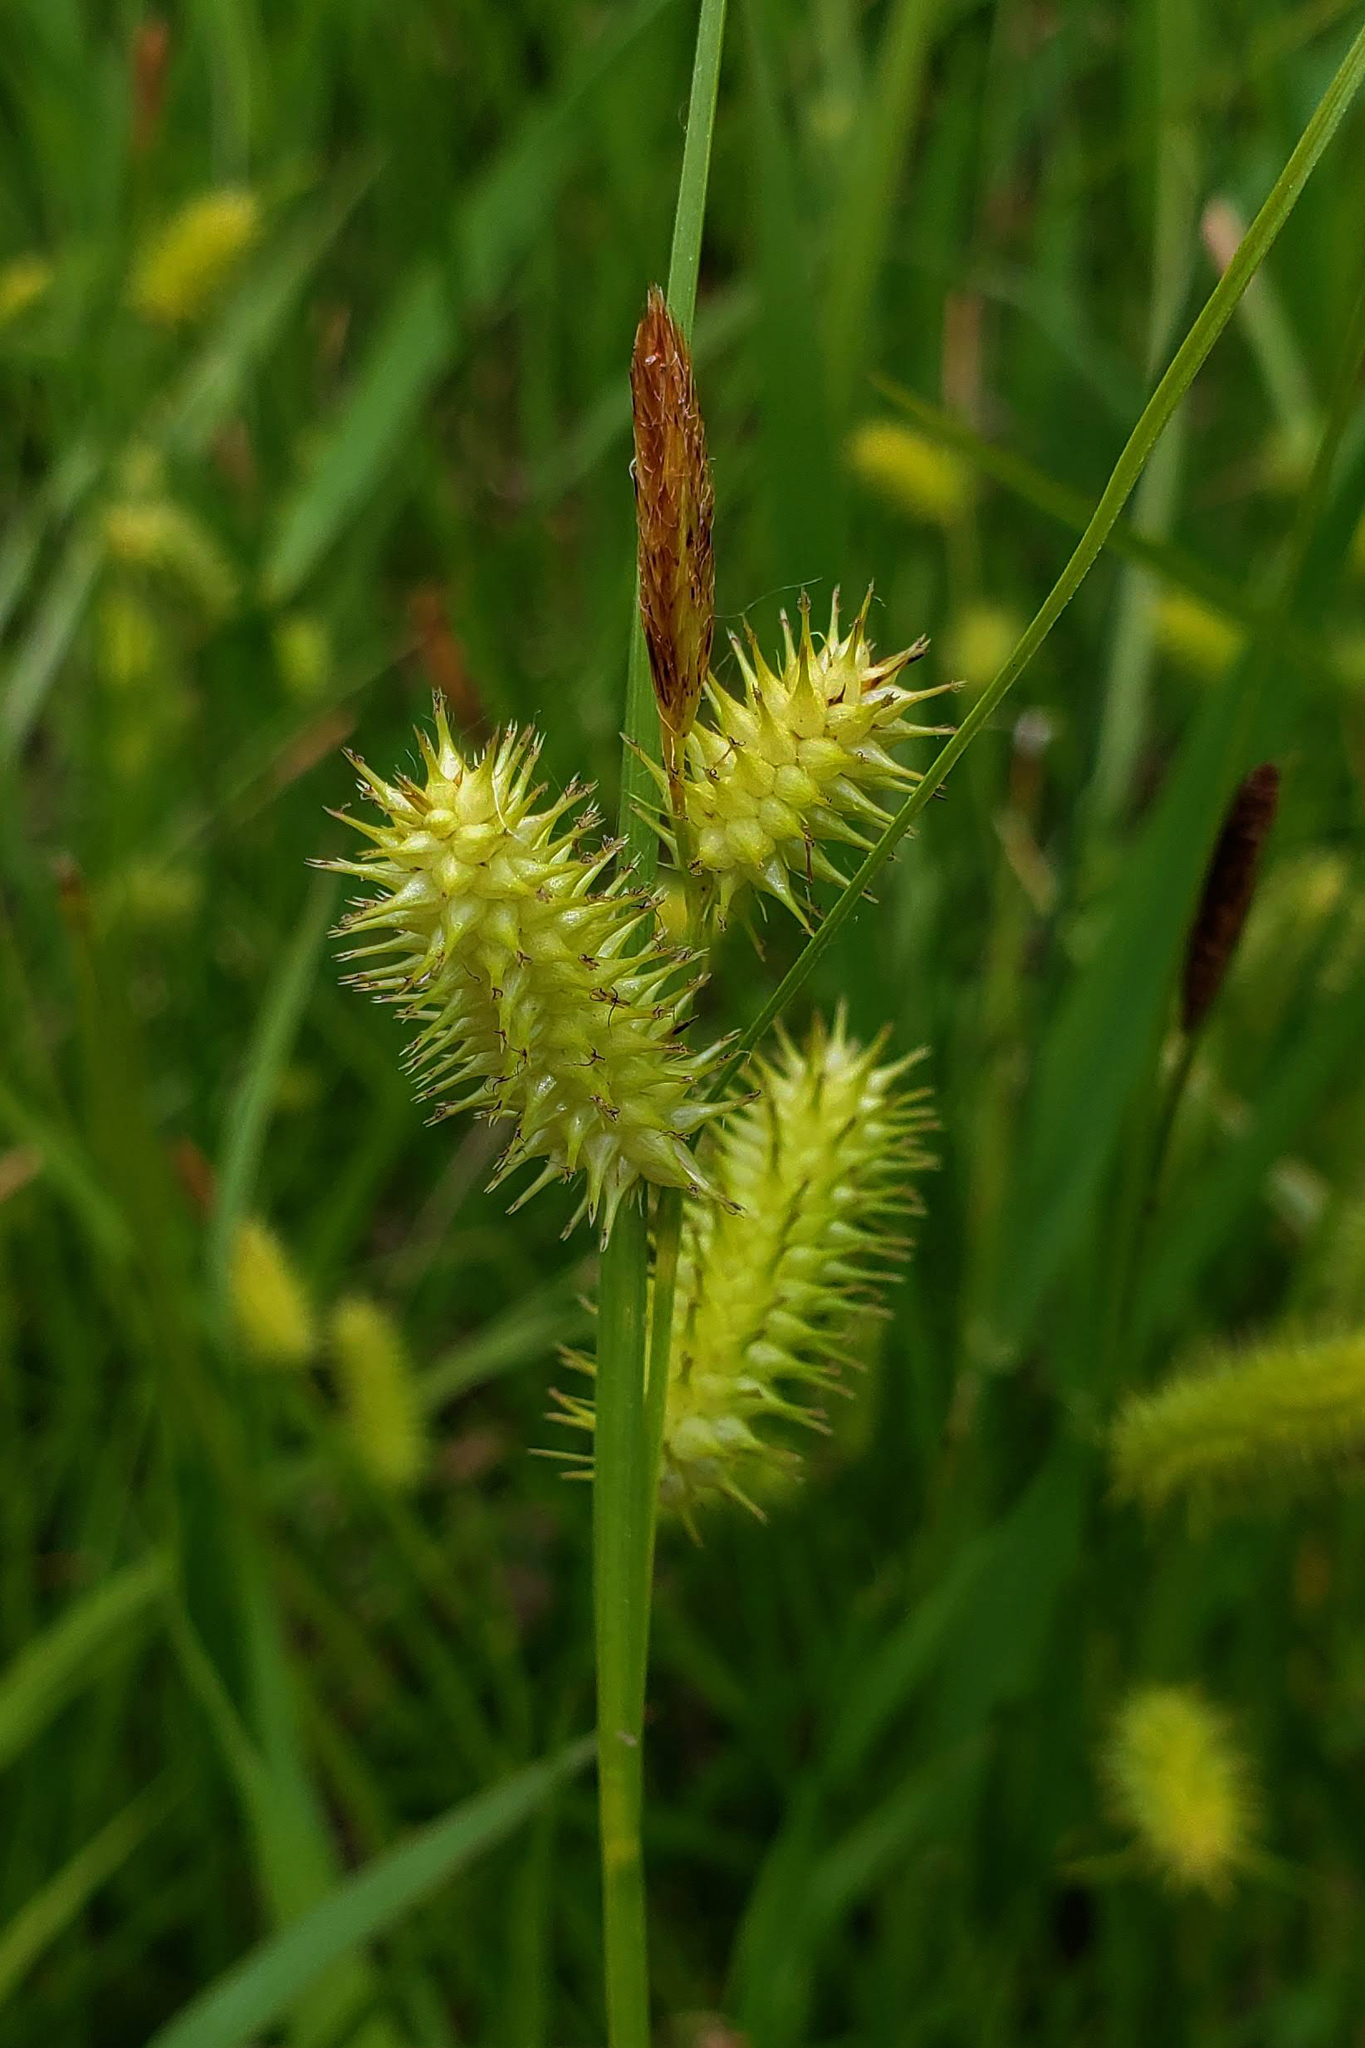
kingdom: Plantae
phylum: Tracheophyta
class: Liliopsida
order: Poales
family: Cyperaceae
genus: Carex
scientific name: Carex hystericina
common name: Bottlebrush sedge
